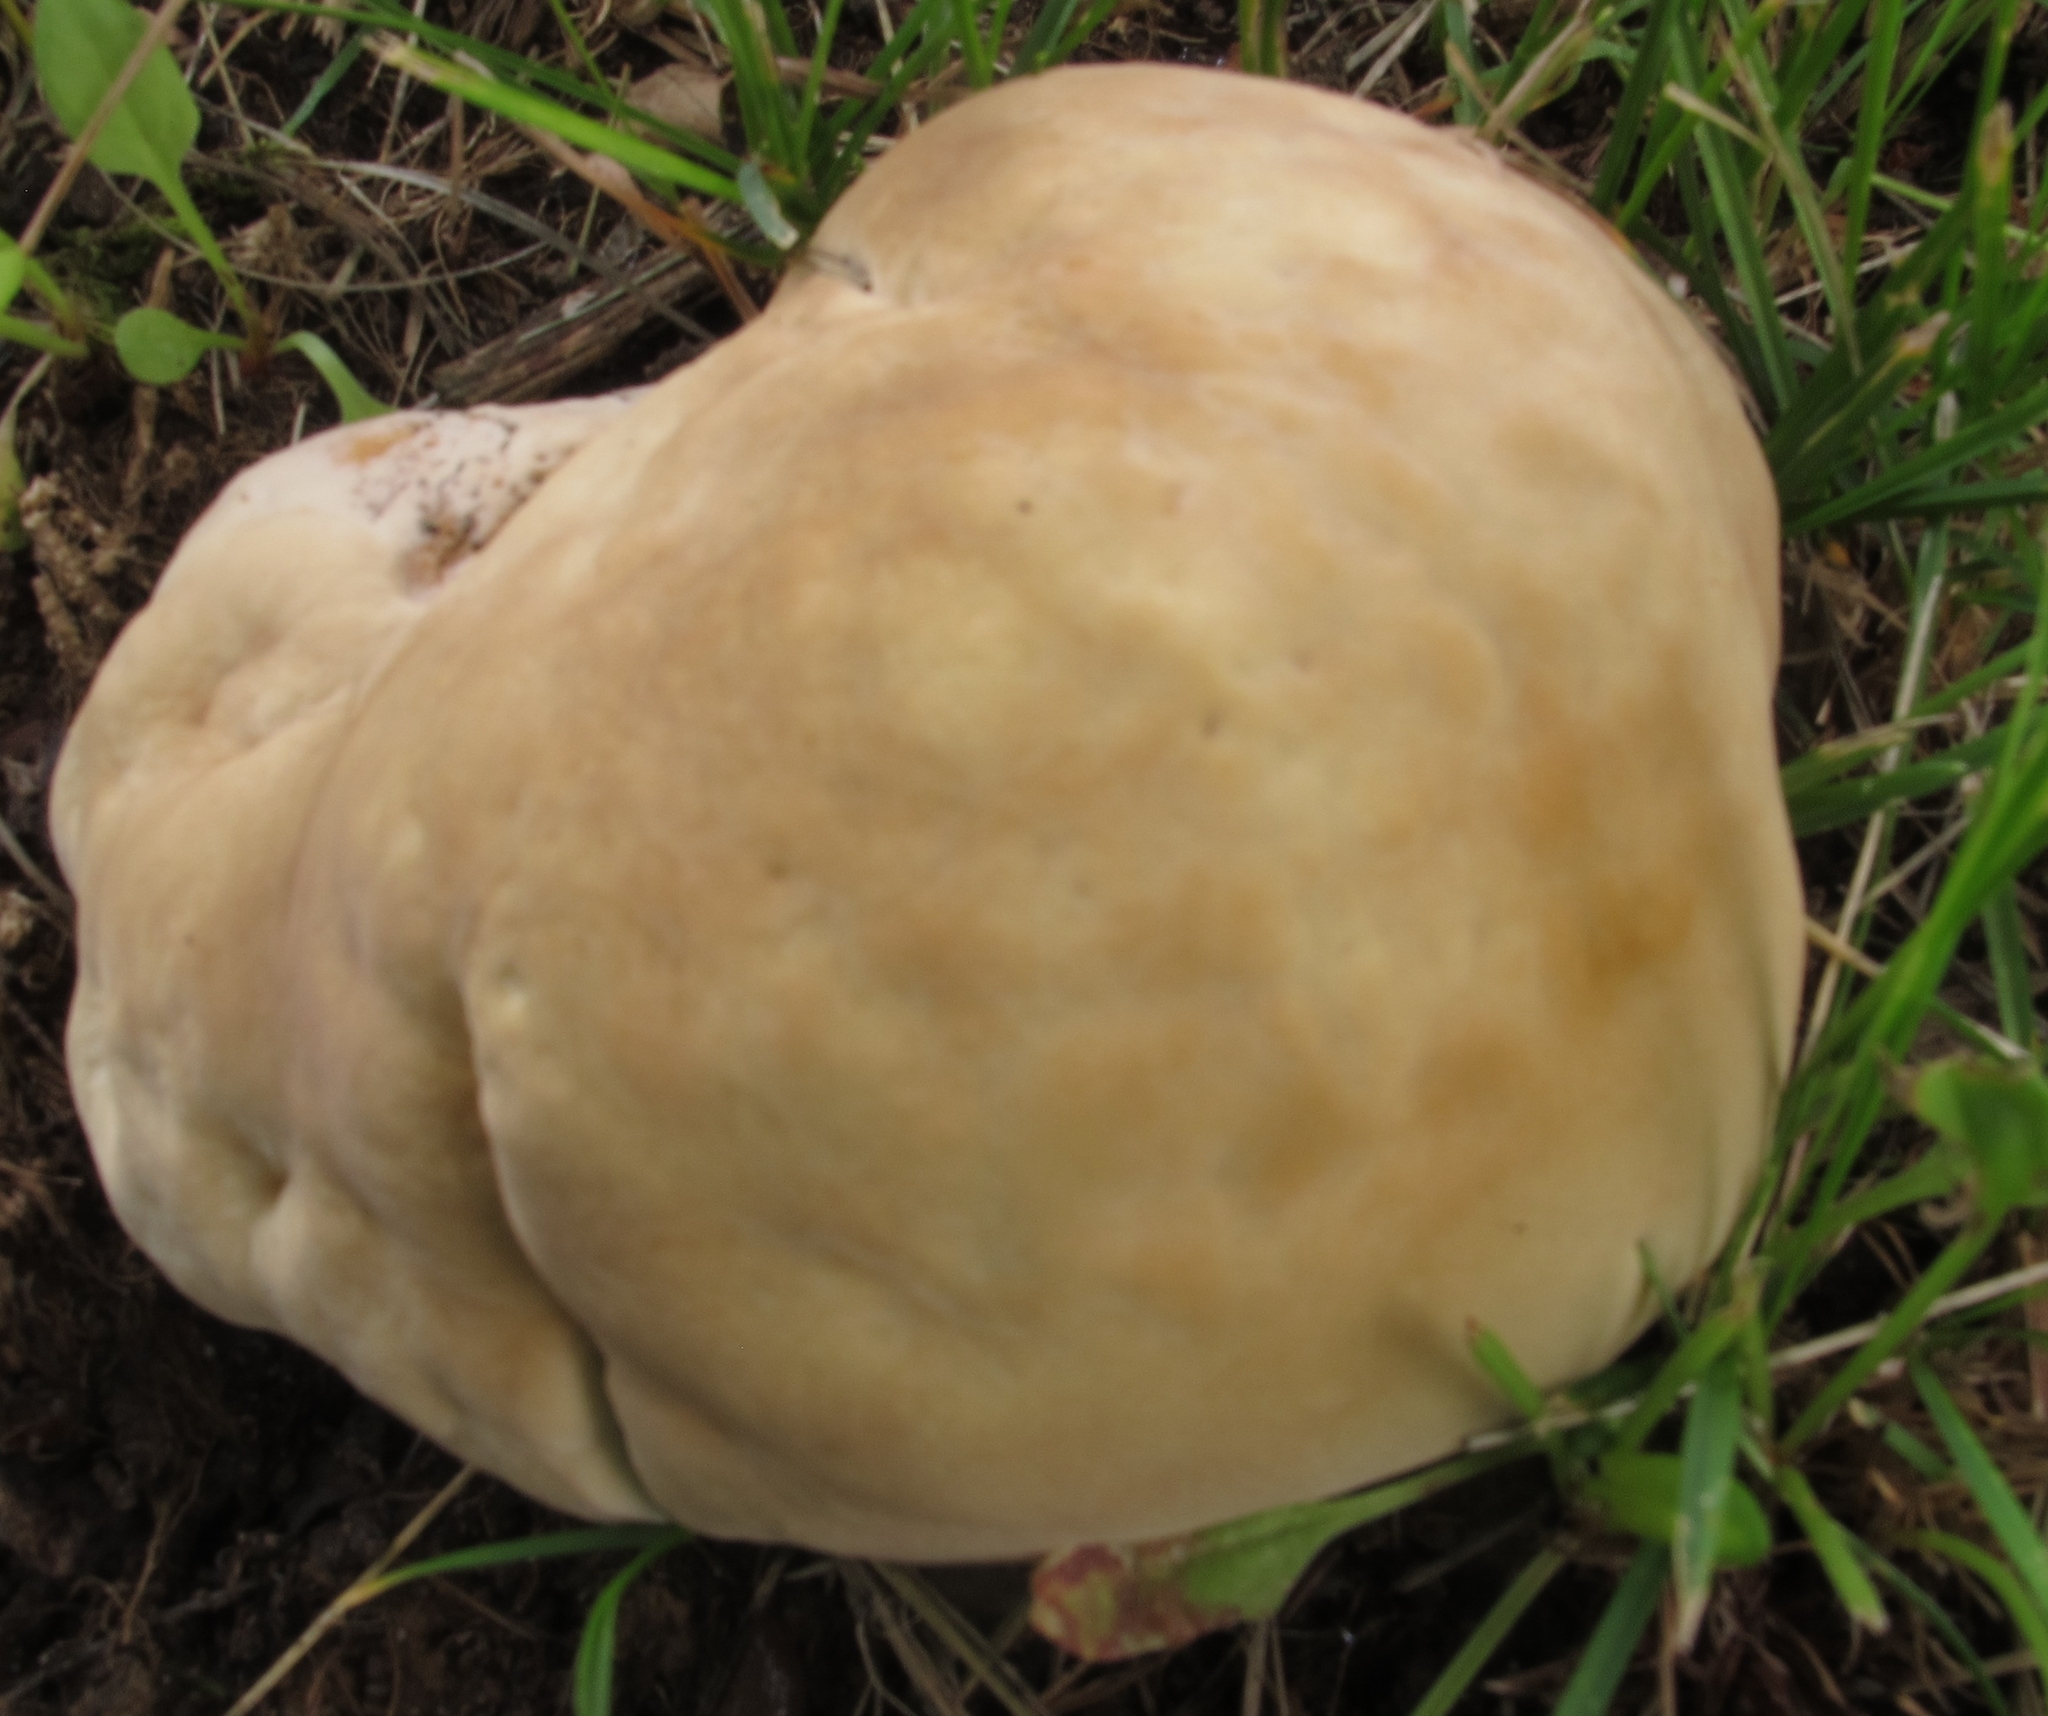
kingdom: Fungi
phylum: Basidiomycota
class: Agaricomycetes
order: Russulales
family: Bondarzewiaceae
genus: Bondarzewia
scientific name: Bondarzewia berkeleyi
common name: Berkeley's polypore
